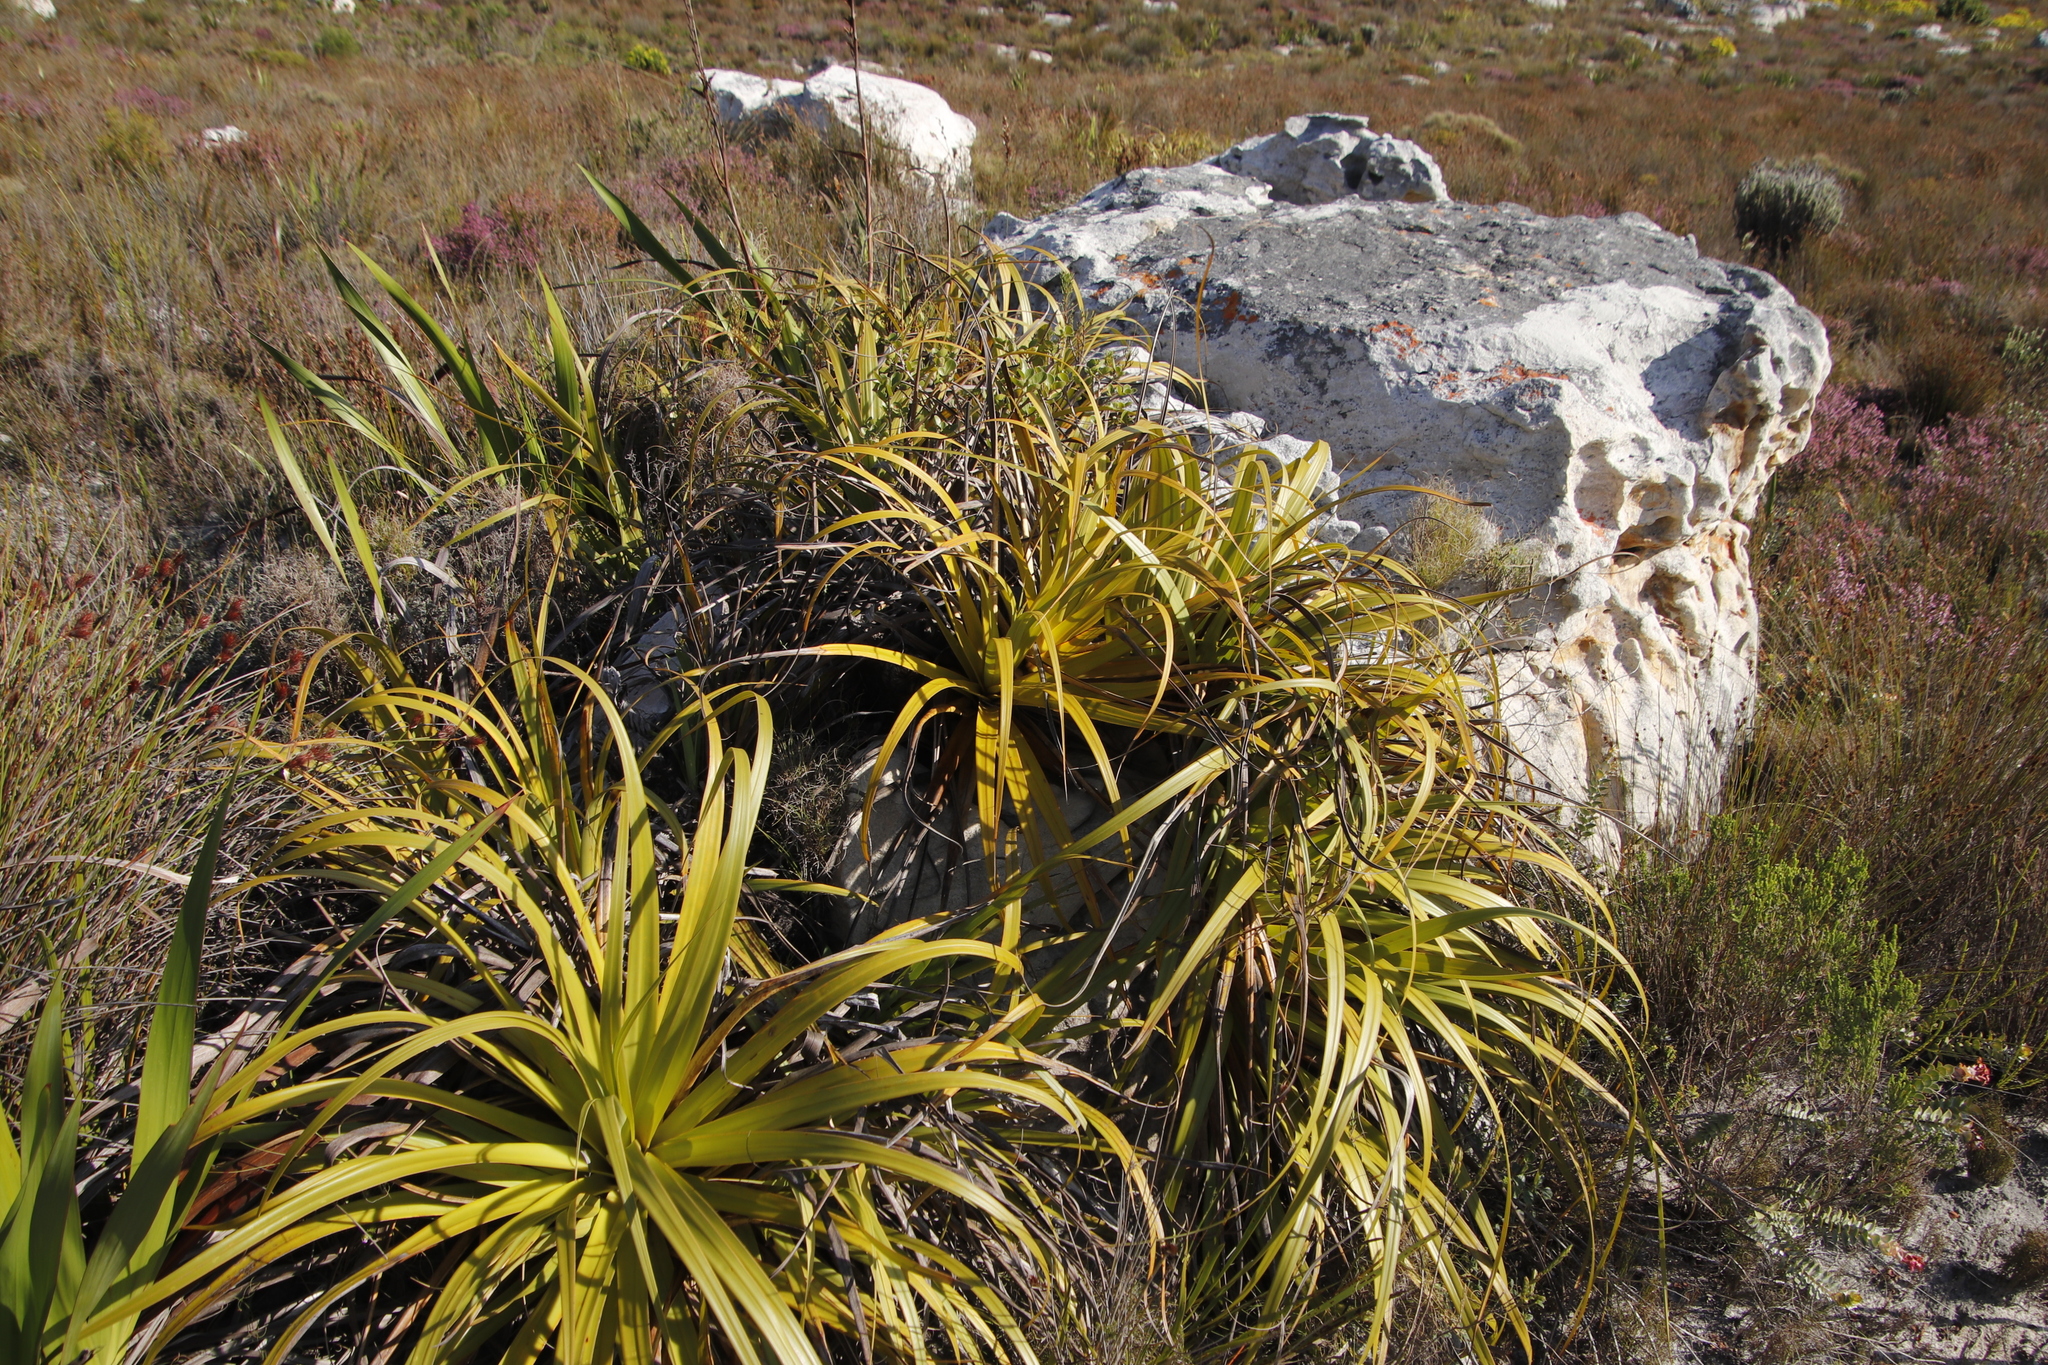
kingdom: Plantae
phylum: Tracheophyta
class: Liliopsida
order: Poales
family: Cyperaceae
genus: Tetraria
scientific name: Tetraria thermalis
